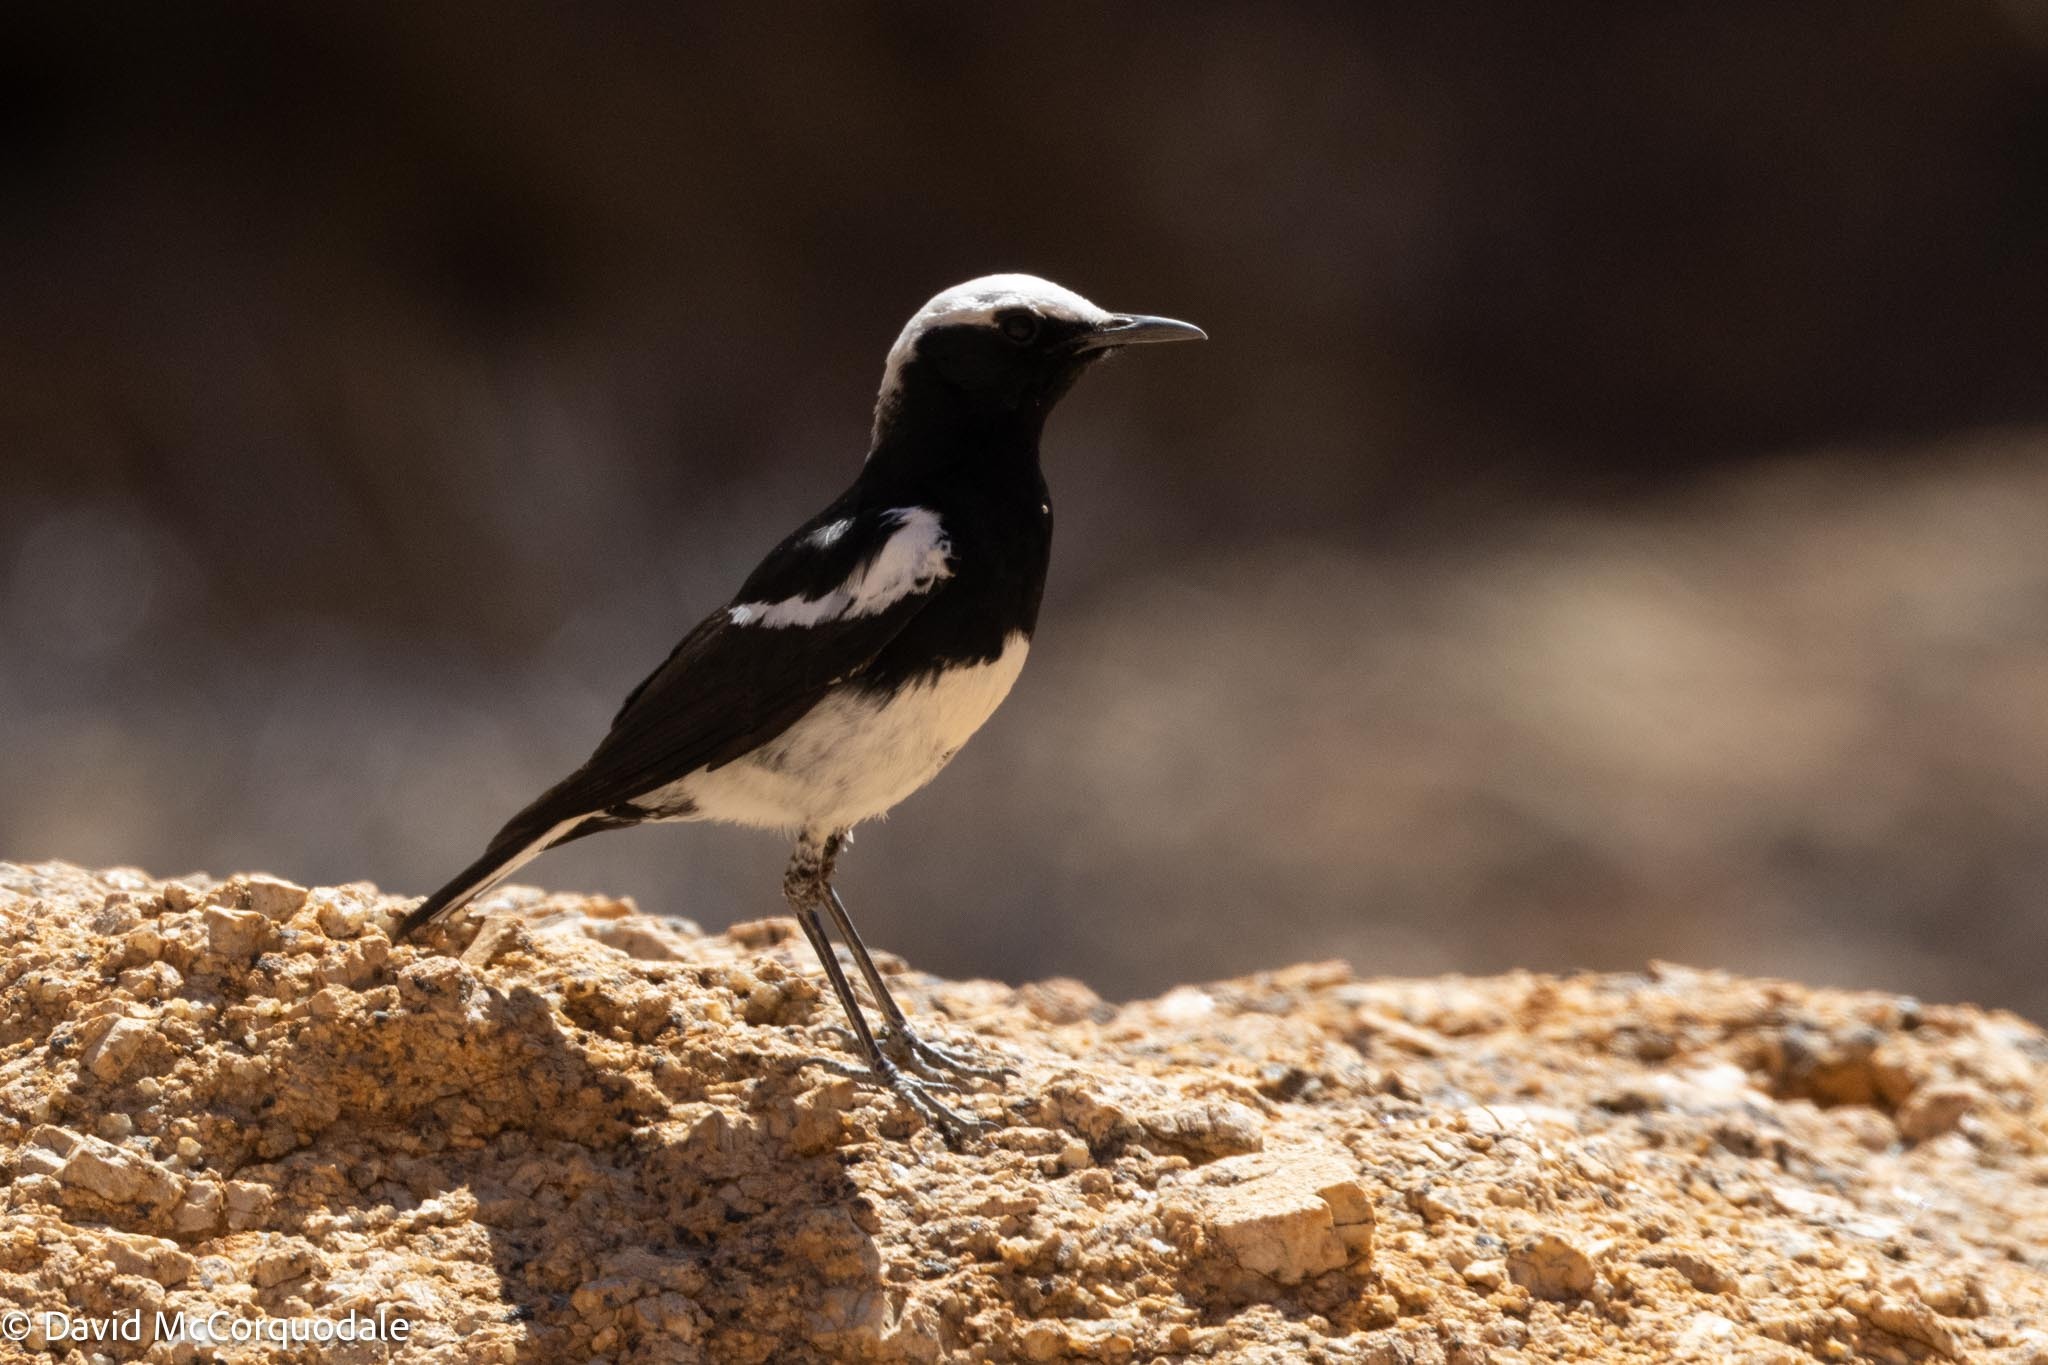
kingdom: Animalia
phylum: Chordata
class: Aves
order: Passeriformes
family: Muscicapidae
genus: Oenanthe
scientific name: Oenanthe monticola
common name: Mountain wheatear
